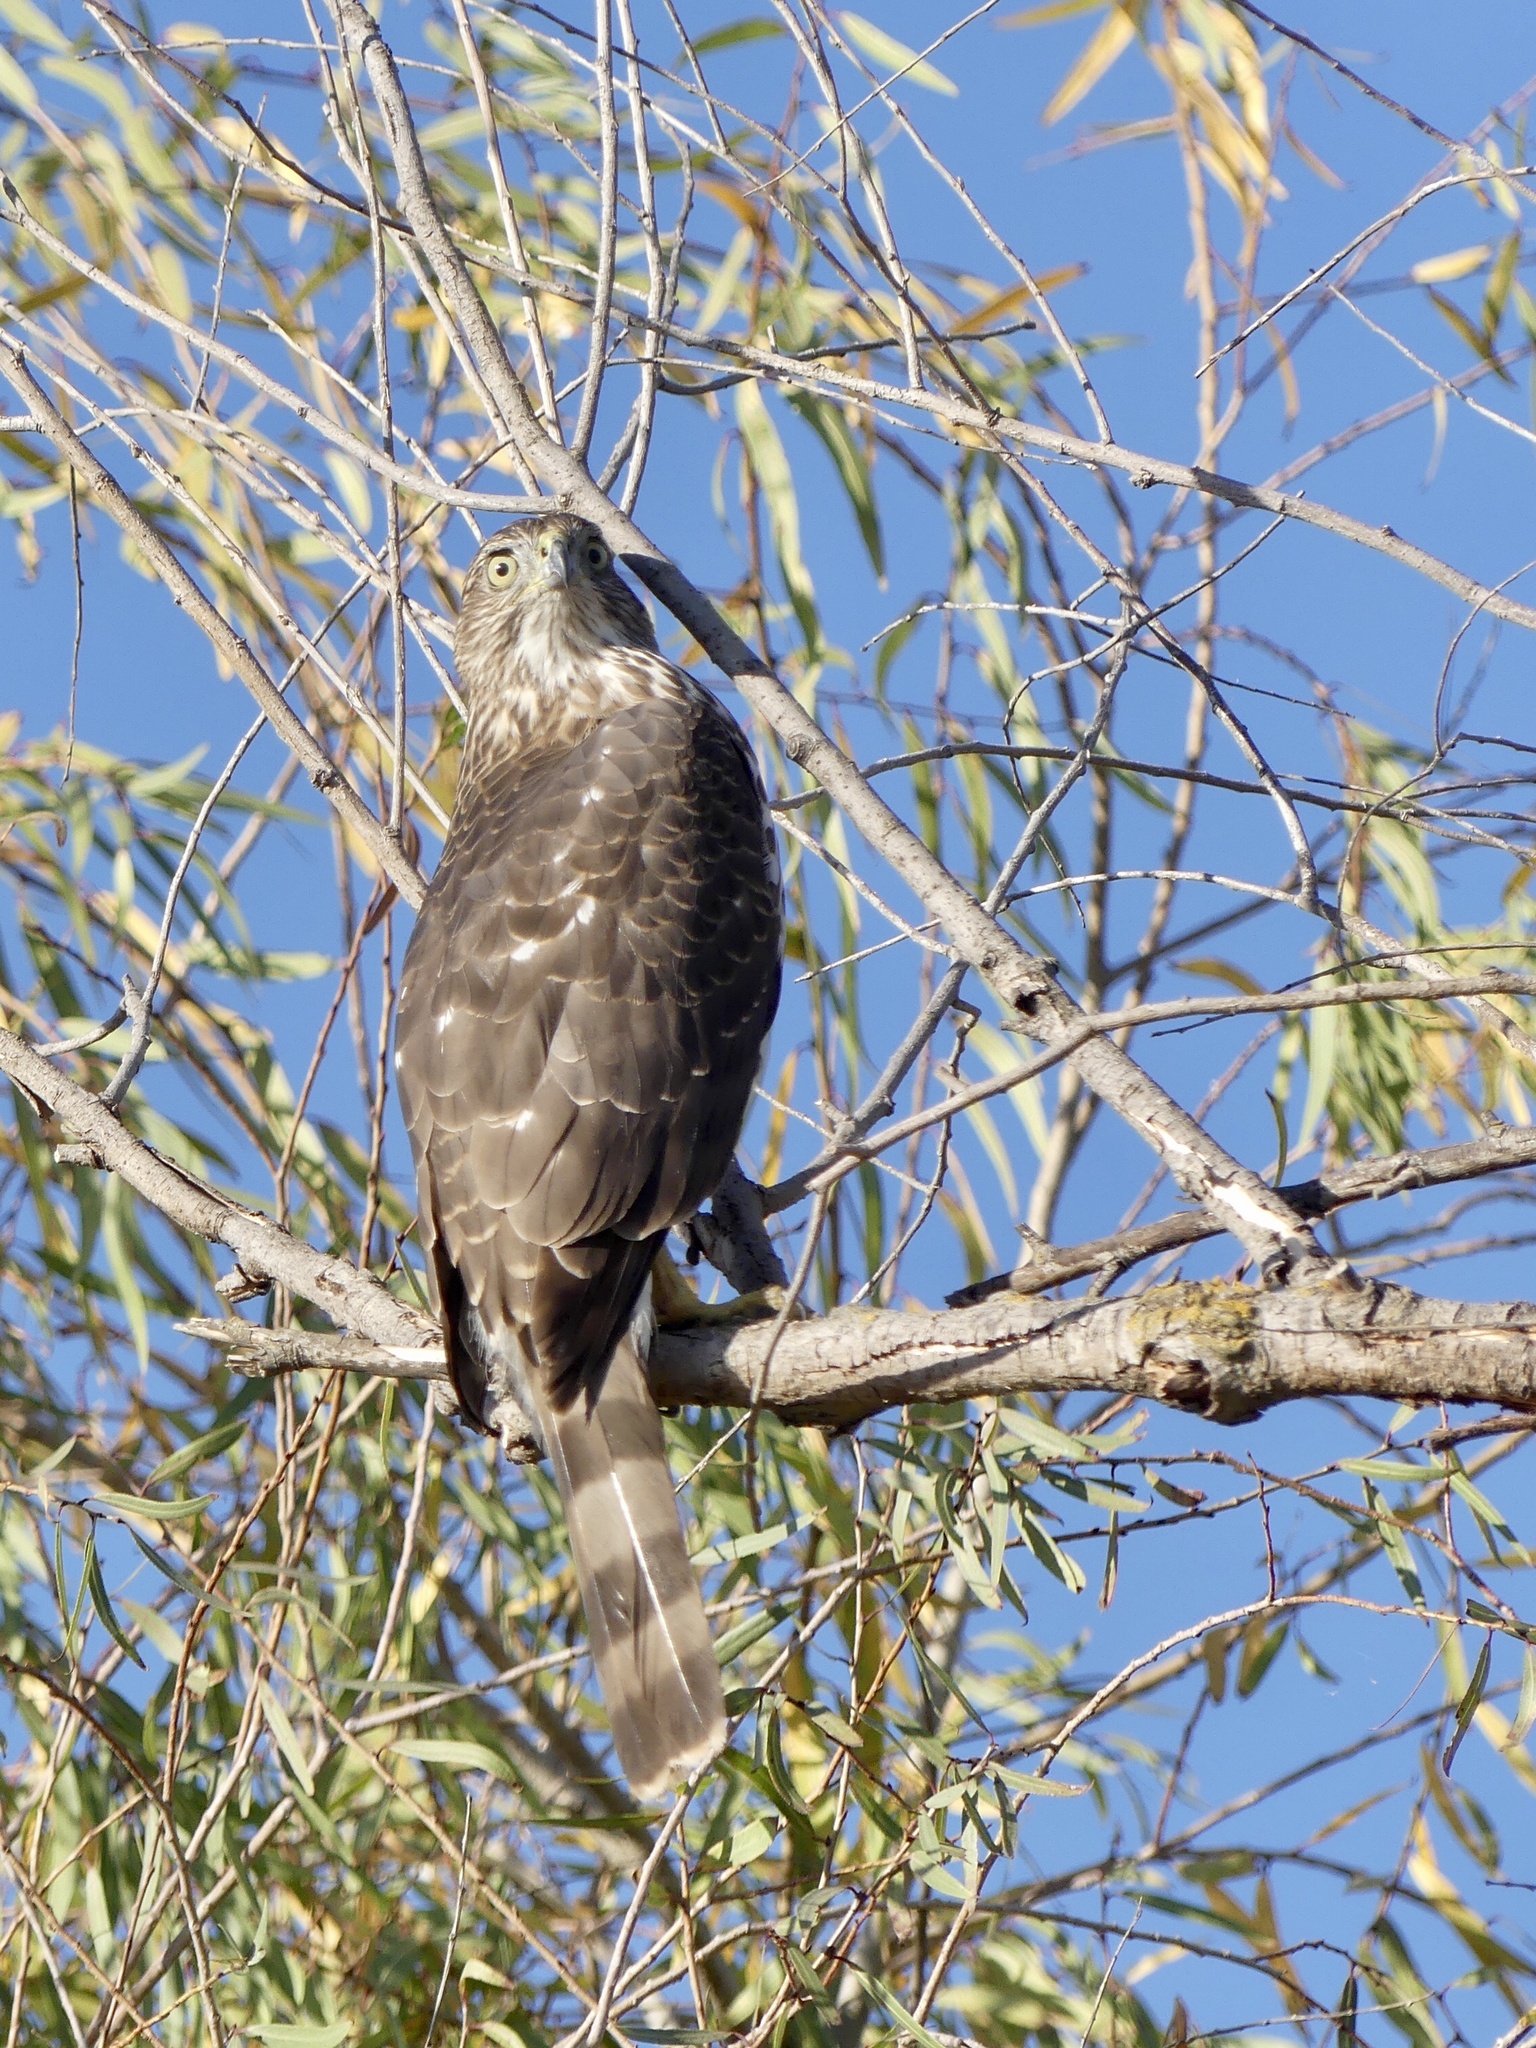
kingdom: Animalia
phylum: Chordata
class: Aves
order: Accipitriformes
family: Accipitridae
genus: Accipiter
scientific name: Accipiter cooperii
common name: Cooper's hawk
